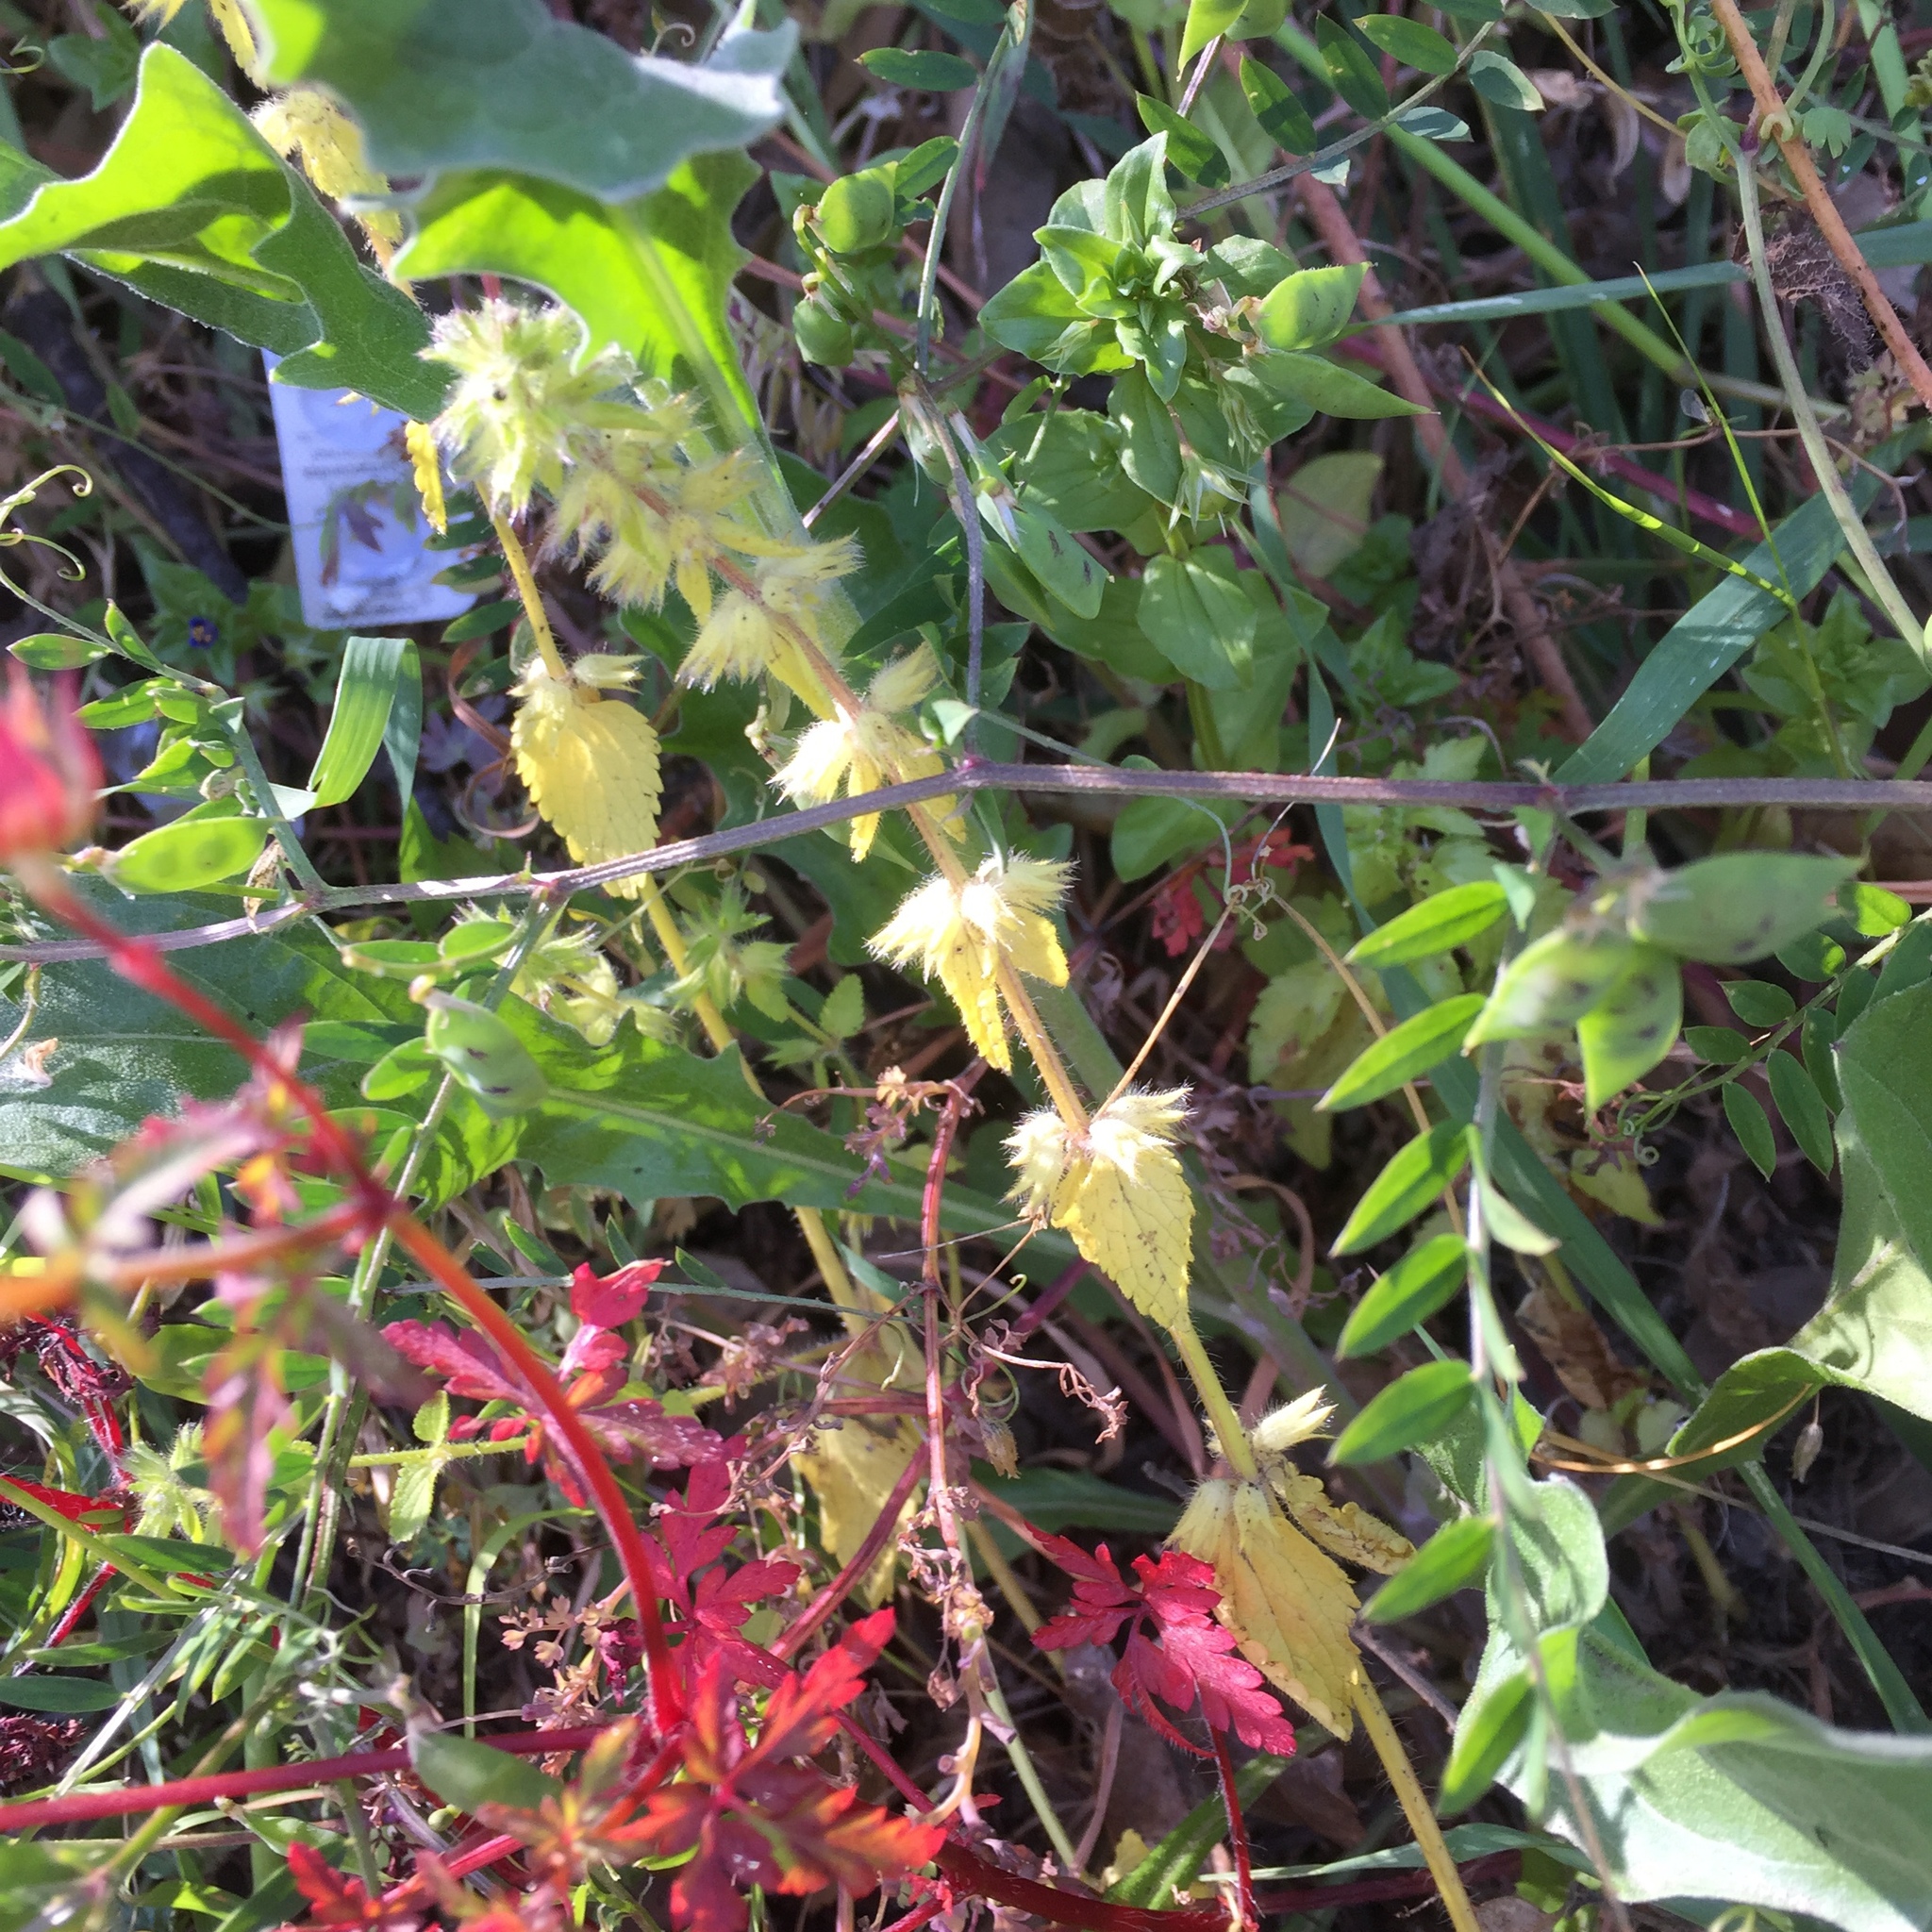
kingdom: Plantae
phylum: Tracheophyta
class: Magnoliopsida
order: Lamiales
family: Lamiaceae
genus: Stachys
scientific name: Stachys arvensis
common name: Field woundwort
